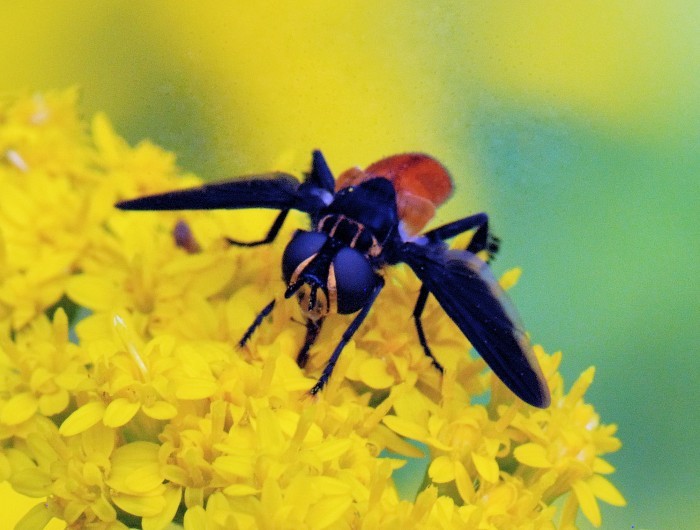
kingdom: Animalia
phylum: Arthropoda
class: Insecta
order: Diptera
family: Tachinidae
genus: Trichopoda
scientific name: Trichopoda pennipes
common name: Tachinid fly
